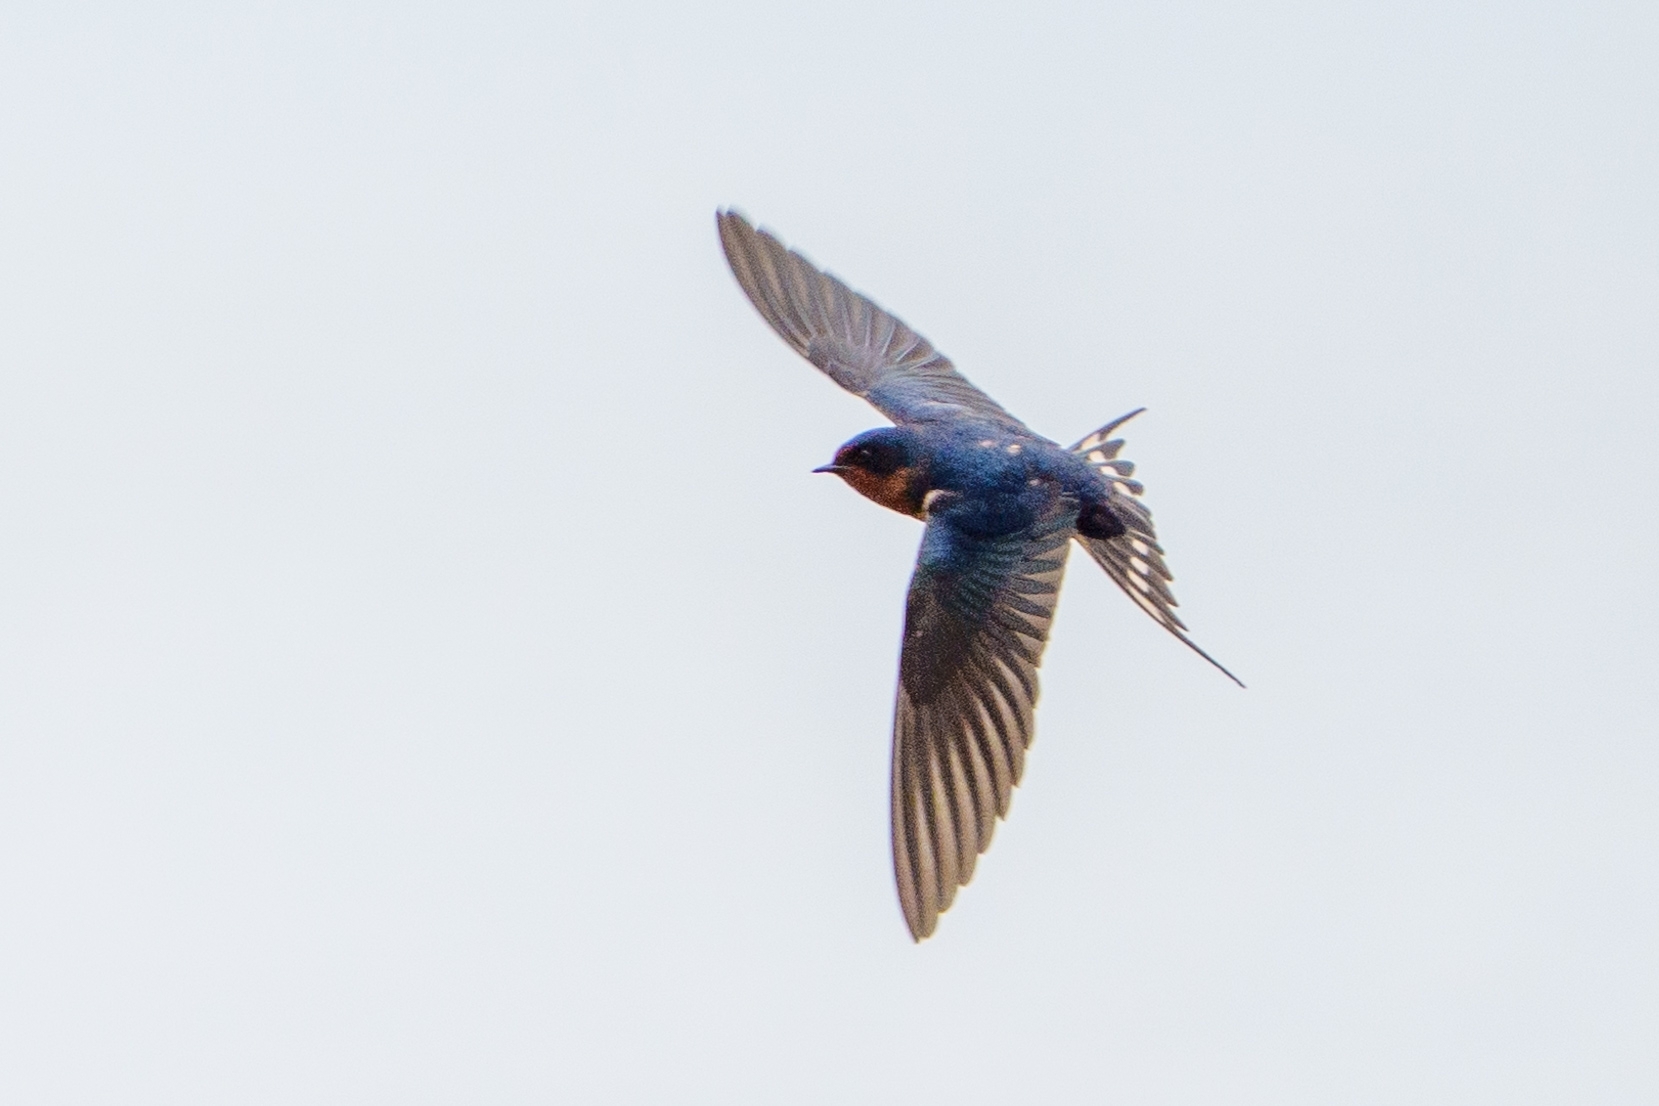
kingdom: Animalia
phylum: Chordata
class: Aves
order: Passeriformes
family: Hirundinidae
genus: Hirundo
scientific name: Hirundo rustica
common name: Barn swallow
